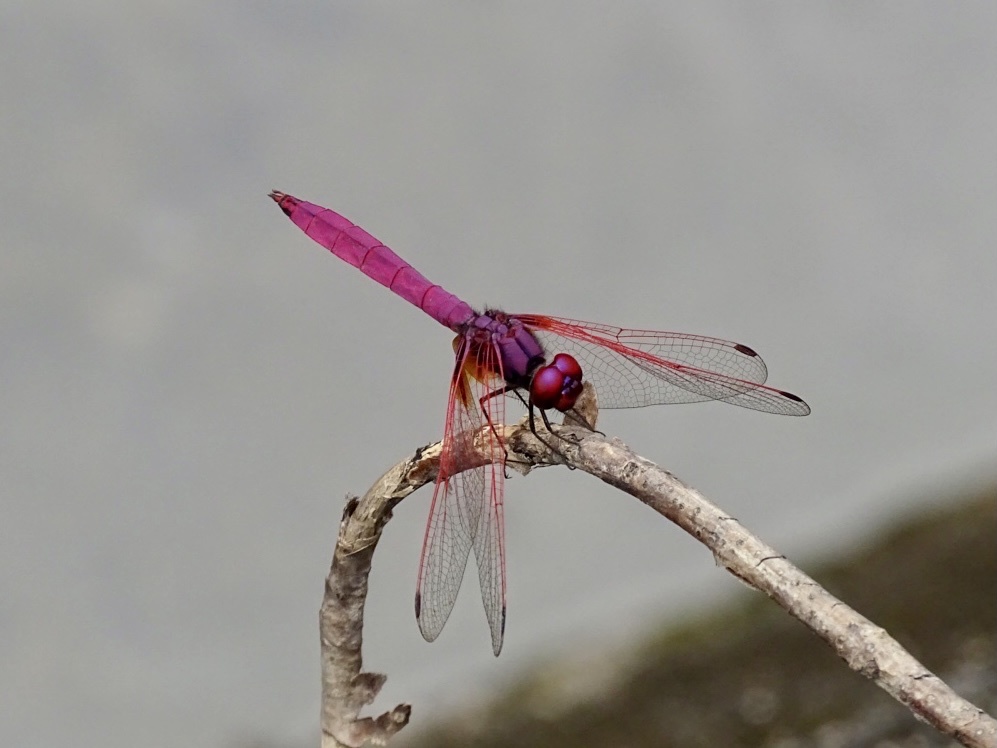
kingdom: Animalia
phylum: Arthropoda
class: Insecta
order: Odonata
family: Libellulidae
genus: Trithemis
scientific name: Trithemis aurora
